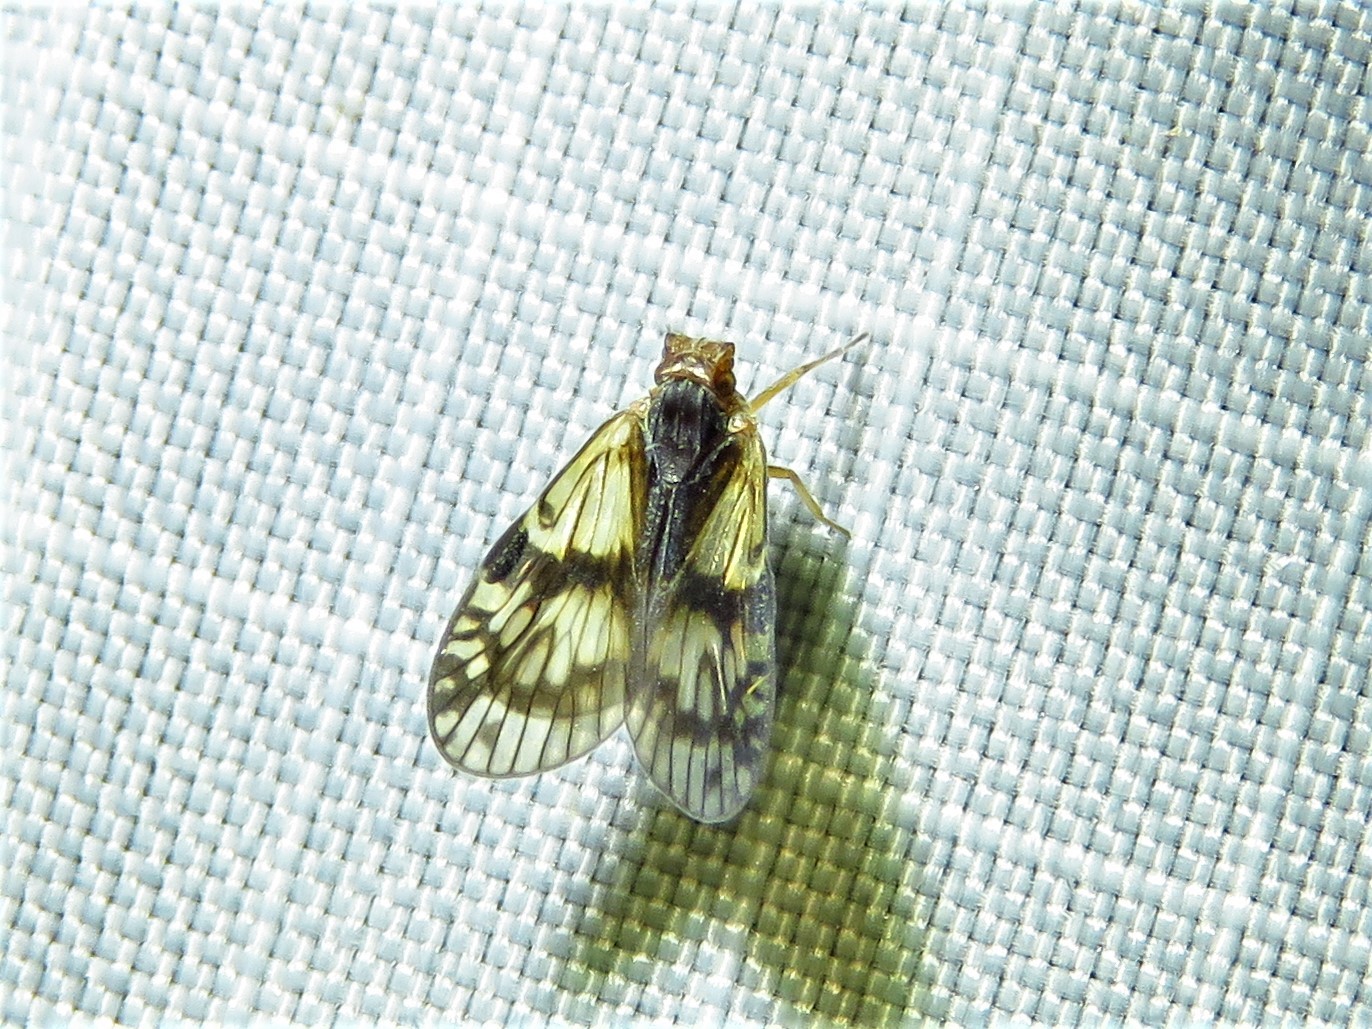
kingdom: Animalia
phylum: Arthropoda
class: Insecta
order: Hemiptera
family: Cixiidae
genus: Bothriocera
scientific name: Bothriocera datuna
